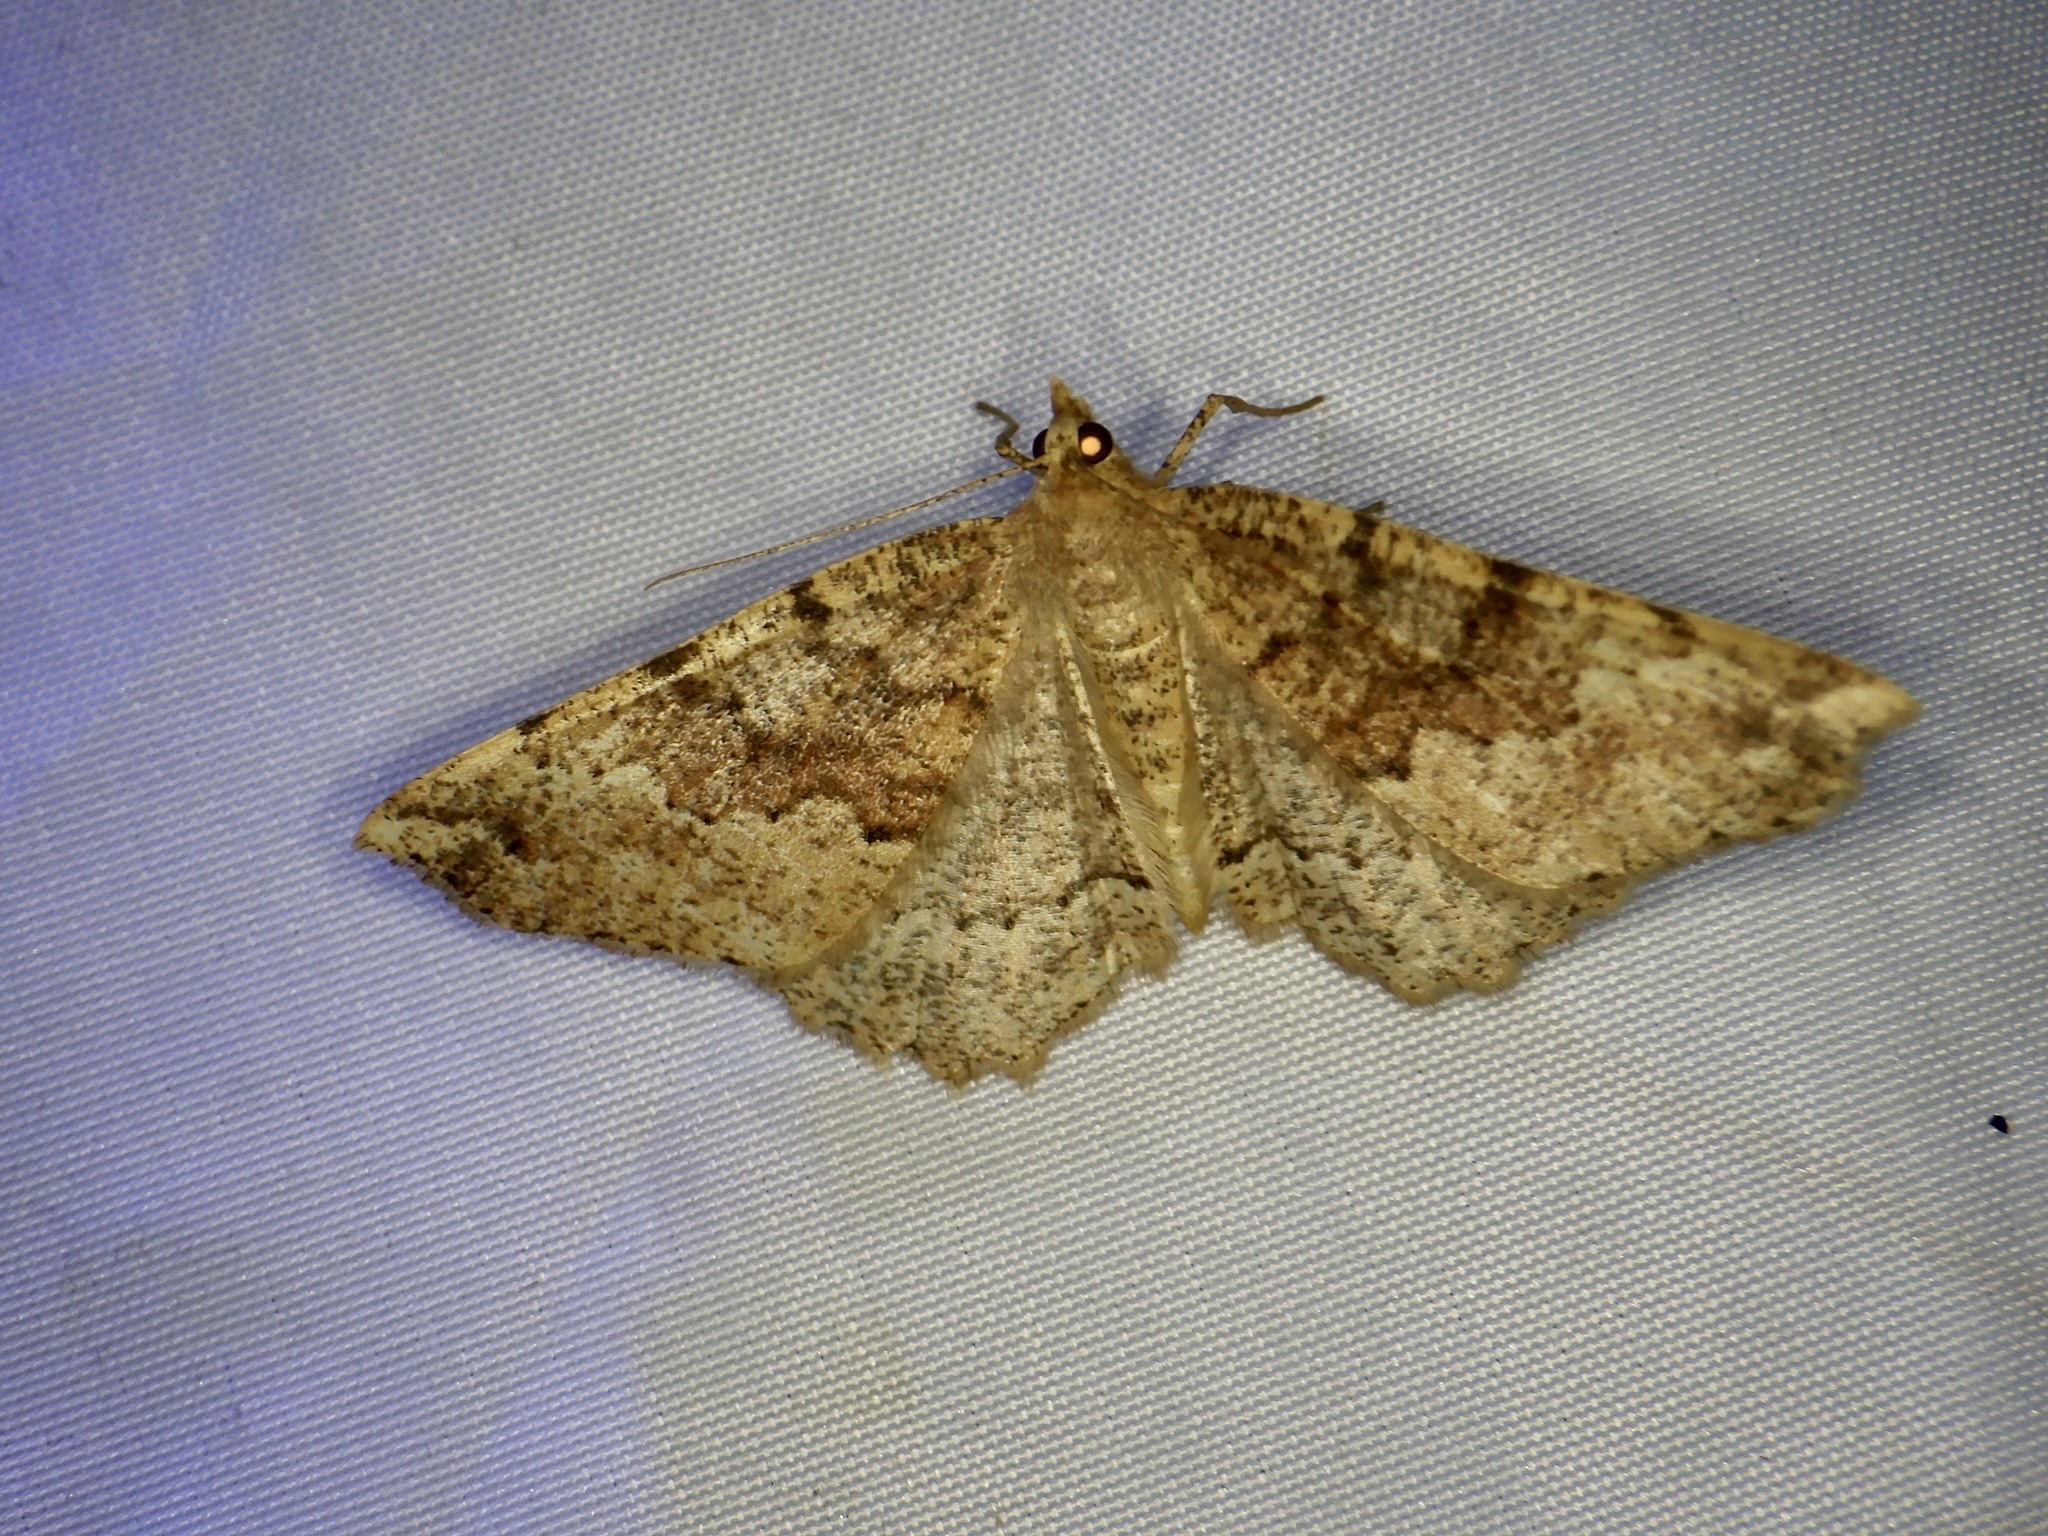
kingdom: Animalia
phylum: Arthropoda
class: Insecta
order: Lepidoptera
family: Geometridae
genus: Xerodes
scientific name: Xerodes rufescentaria
